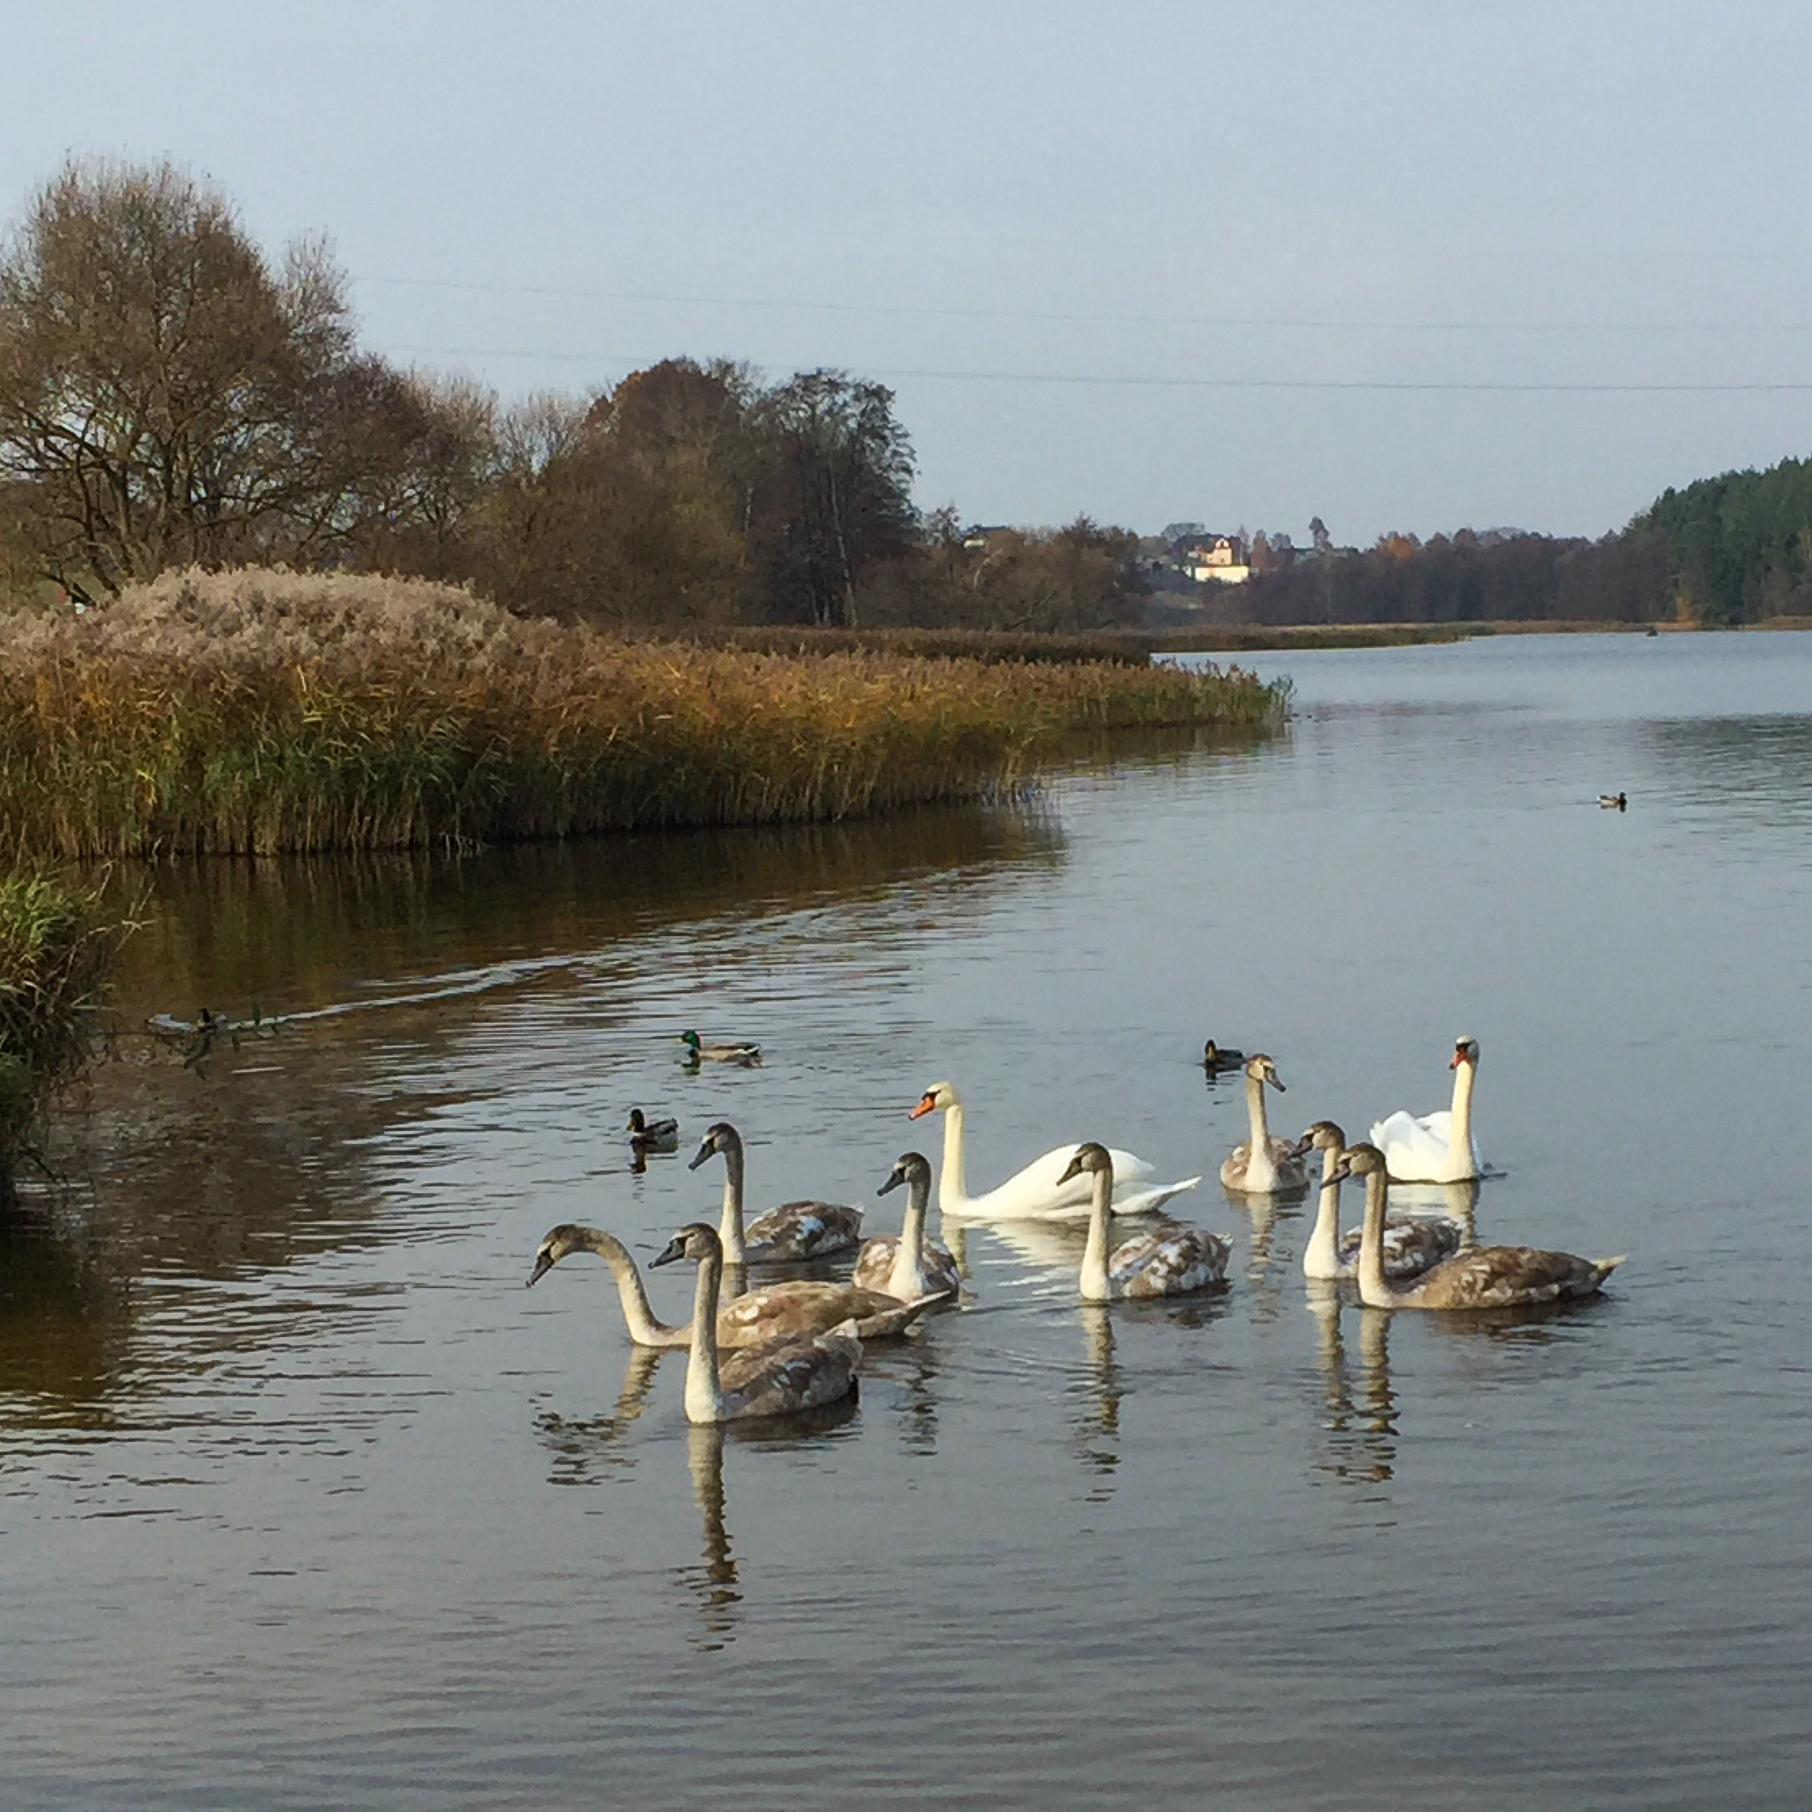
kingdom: Animalia
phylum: Chordata
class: Aves
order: Anseriformes
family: Anatidae
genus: Cygnus
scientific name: Cygnus olor
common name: Mute swan
